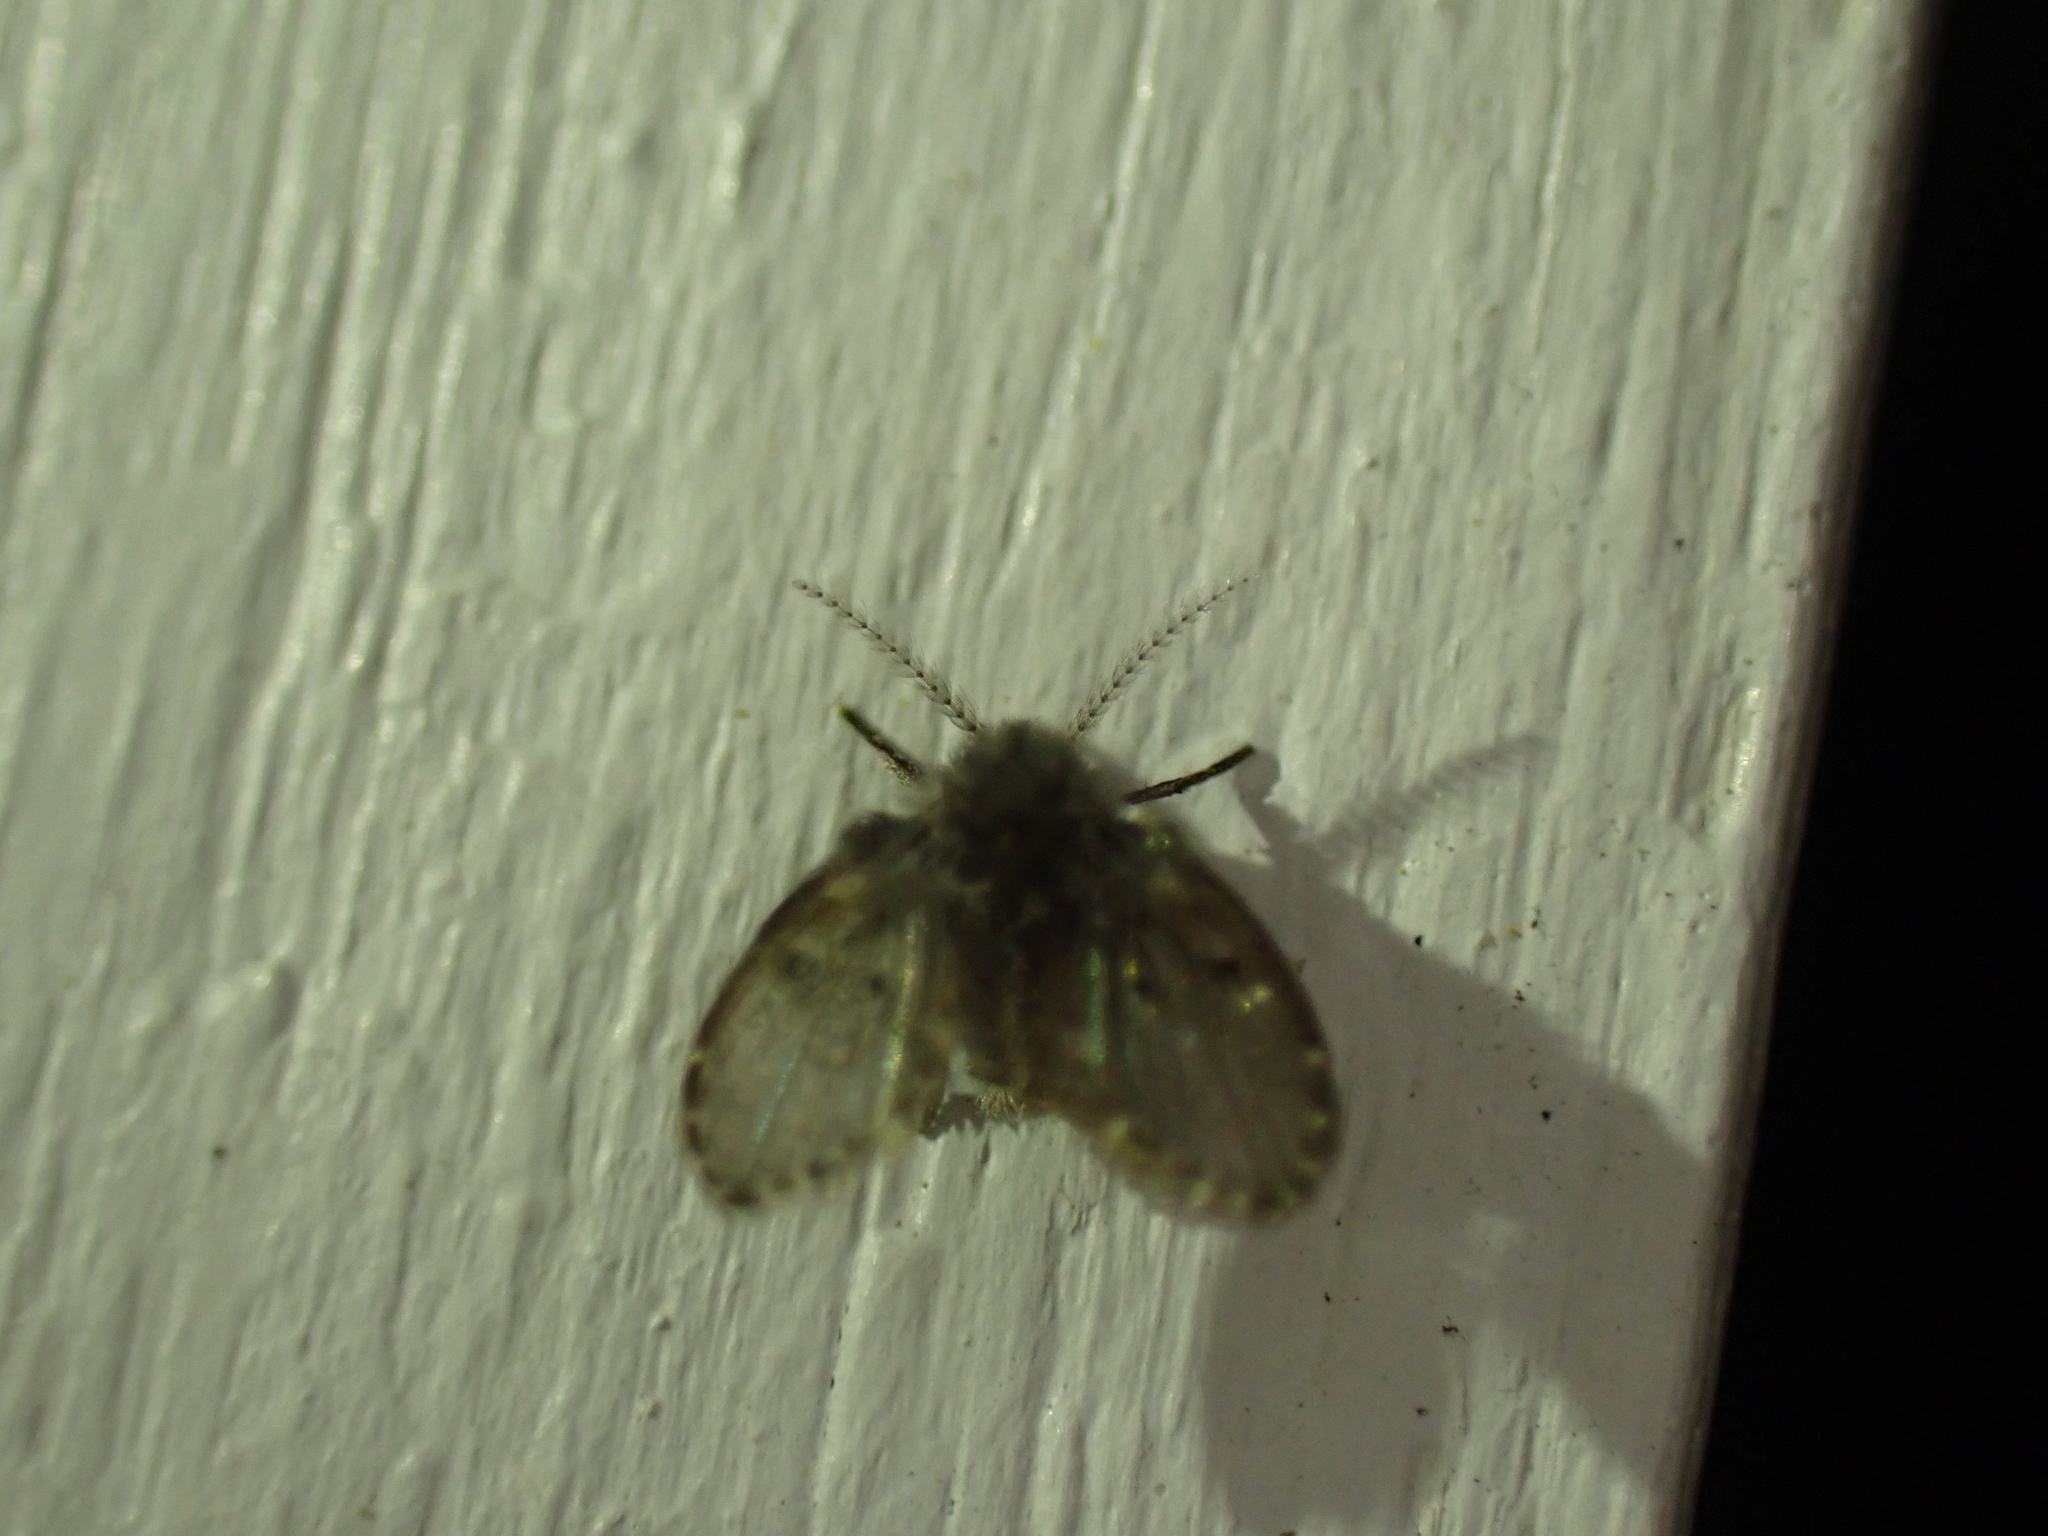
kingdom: Animalia
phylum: Arthropoda
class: Insecta
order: Diptera
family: Psychodidae
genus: Clogmia
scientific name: Clogmia albipunctatus
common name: White-spotted moth fly
